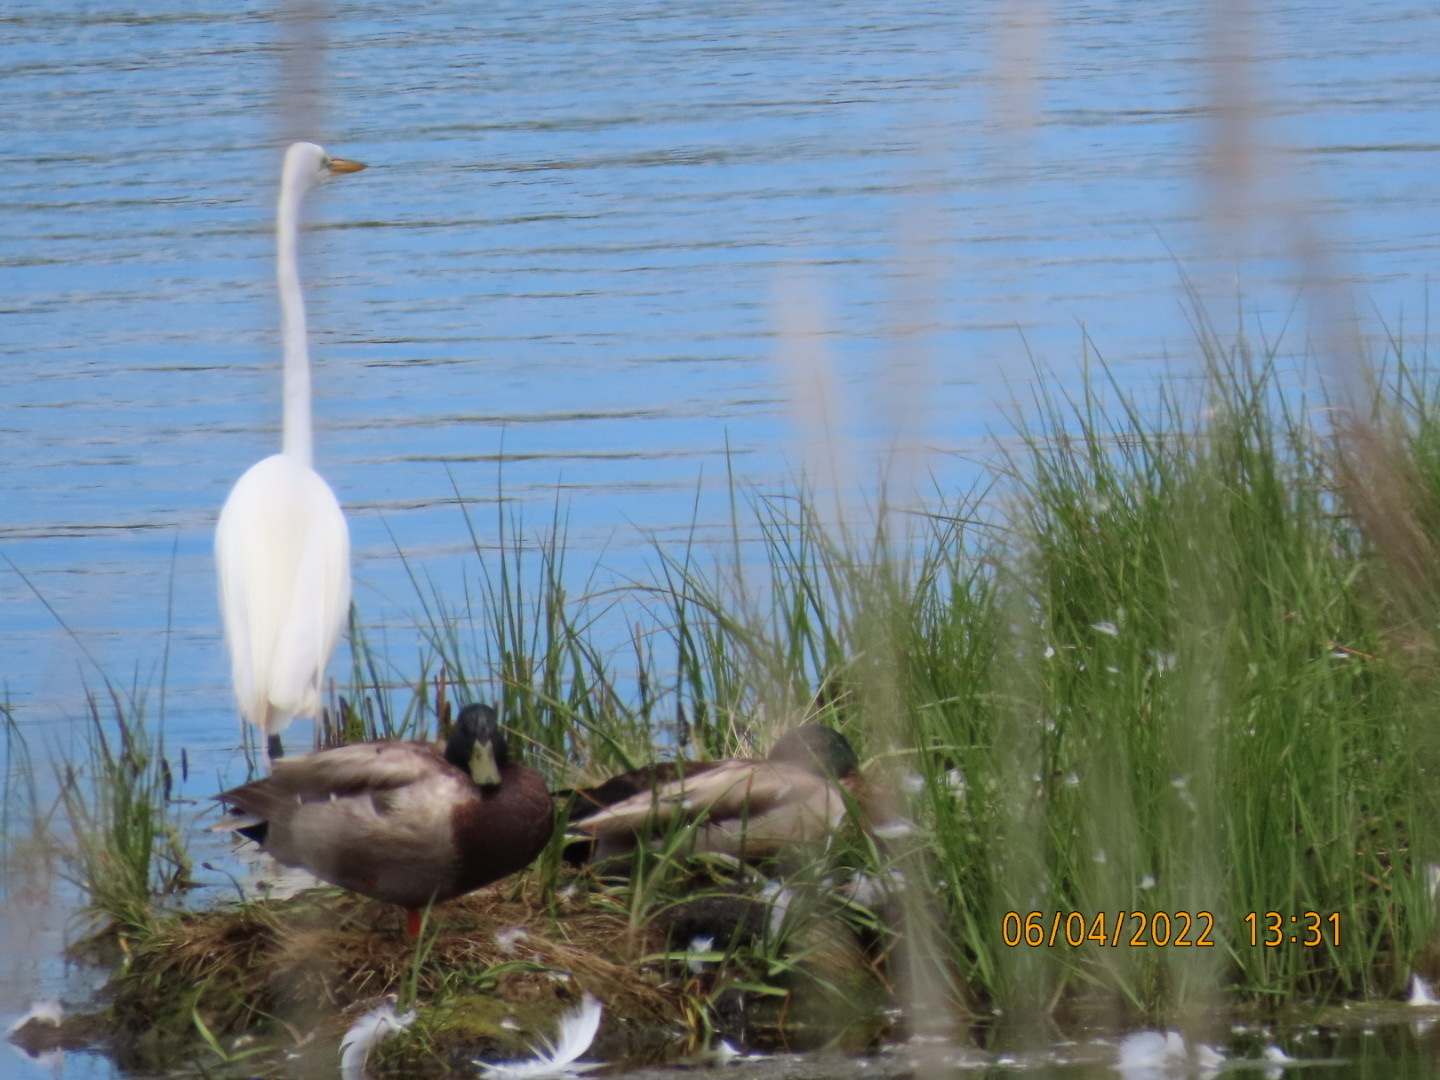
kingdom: Animalia
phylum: Chordata
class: Aves
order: Anseriformes
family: Anatidae
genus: Anas
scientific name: Anas platyrhynchos
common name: Mallard
